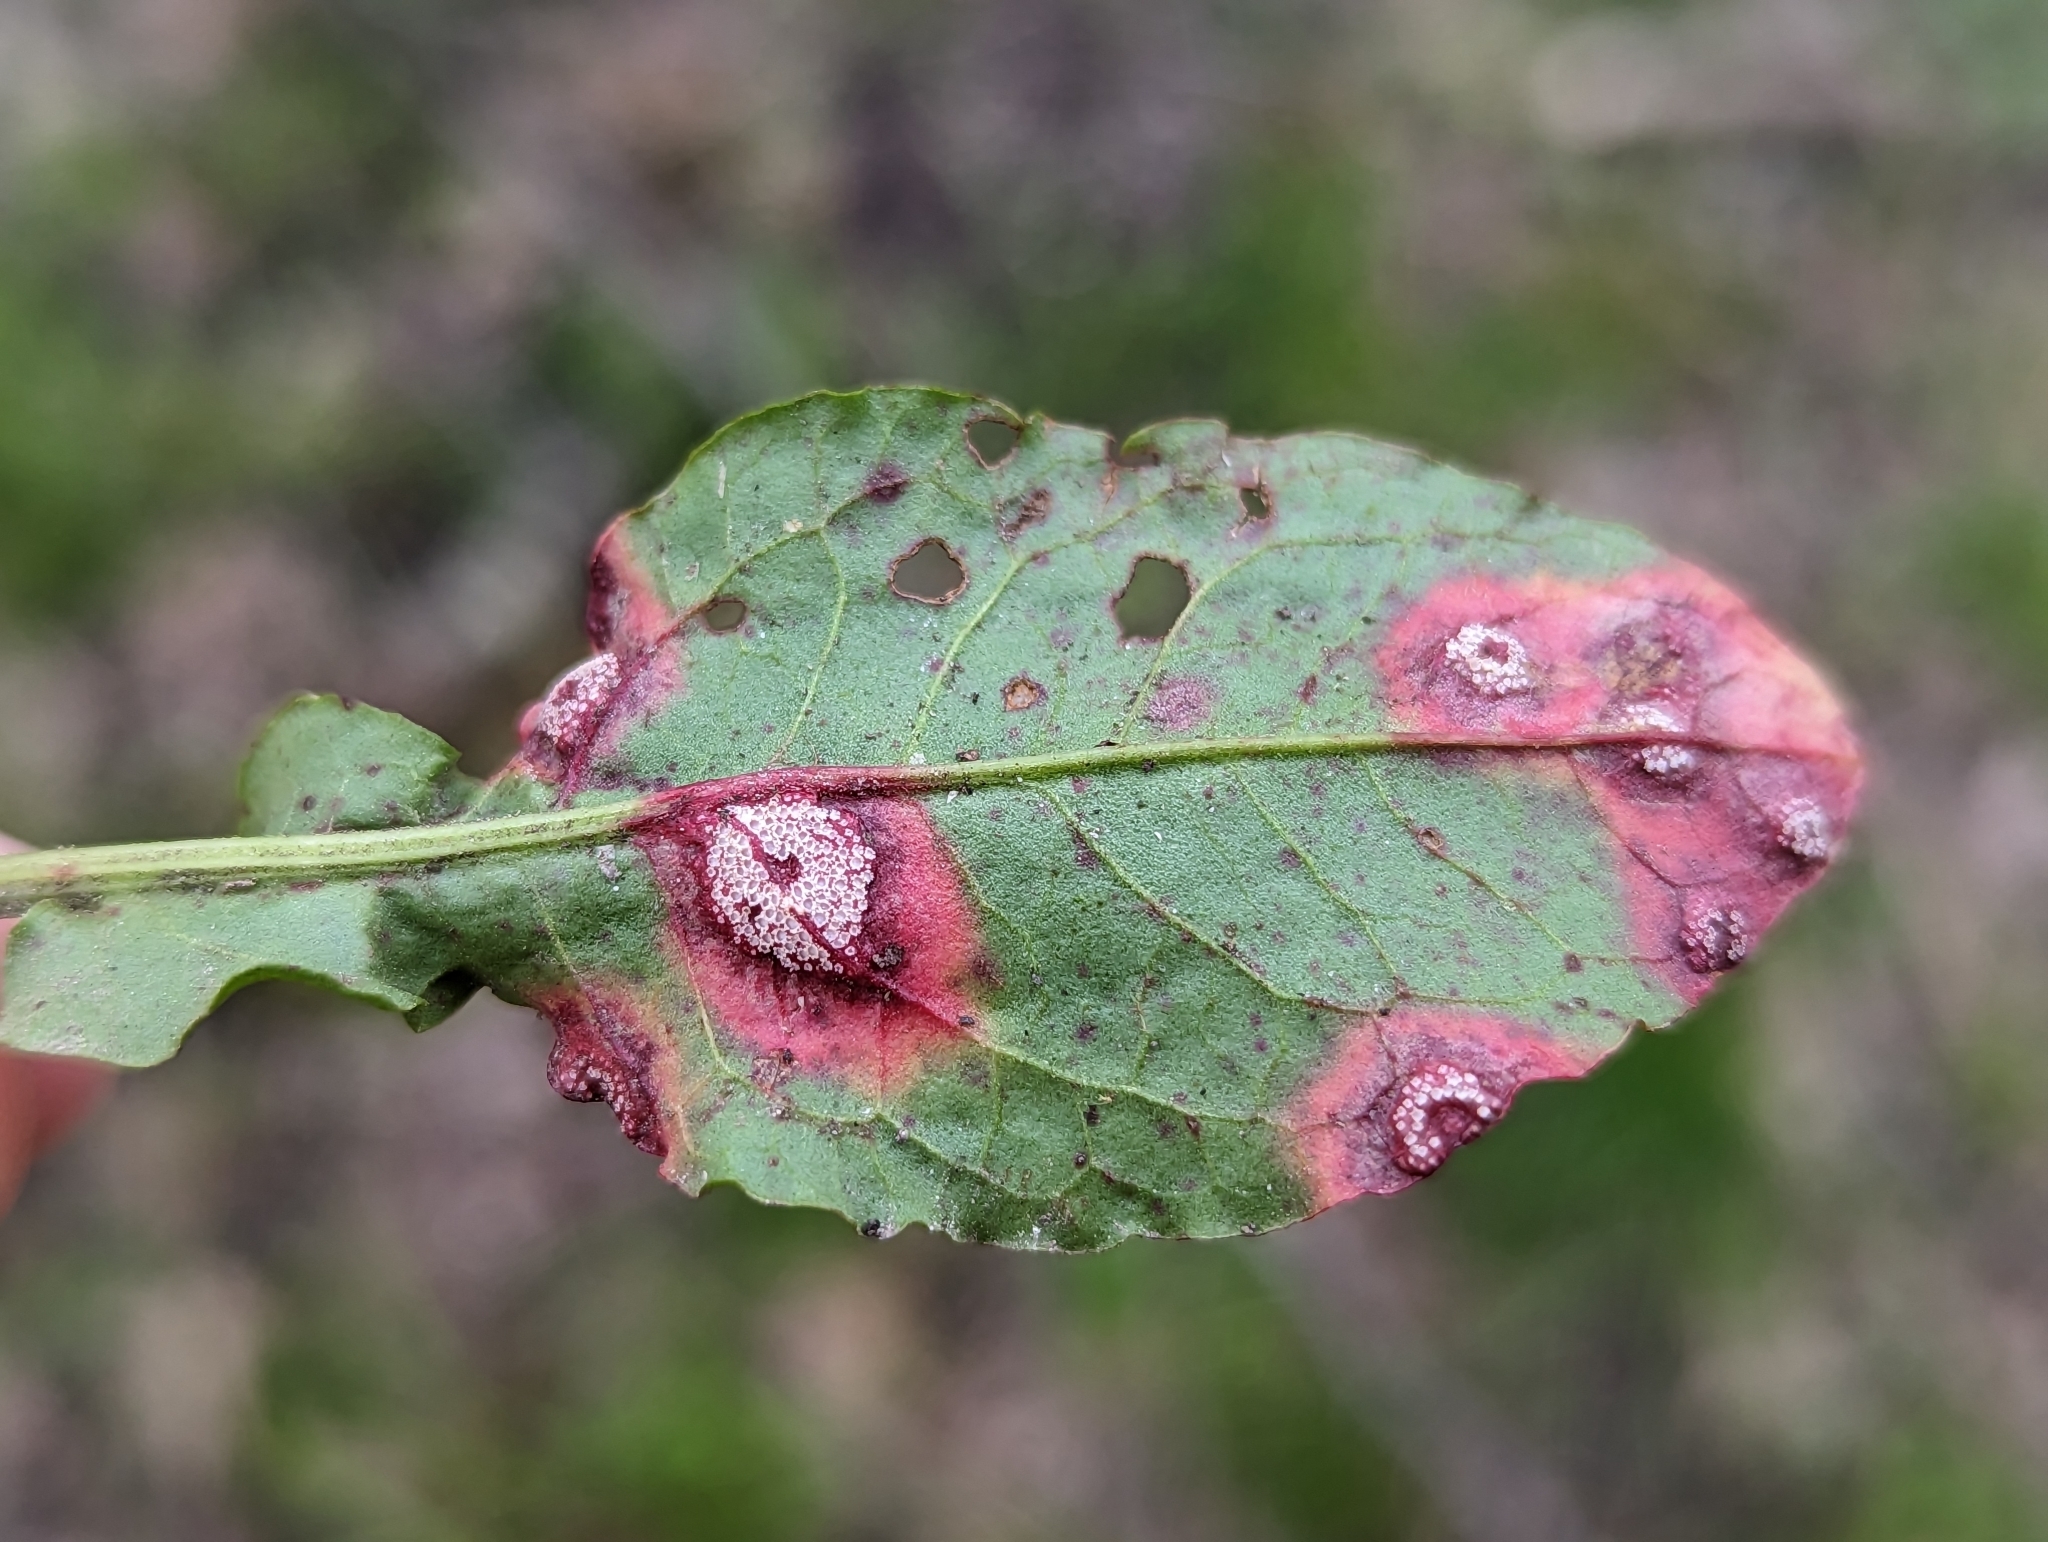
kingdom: Fungi
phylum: Basidiomycota
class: Pucciniomycetes
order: Pucciniales
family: Pucciniaceae
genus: Puccinia
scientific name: Puccinia phragmitis
